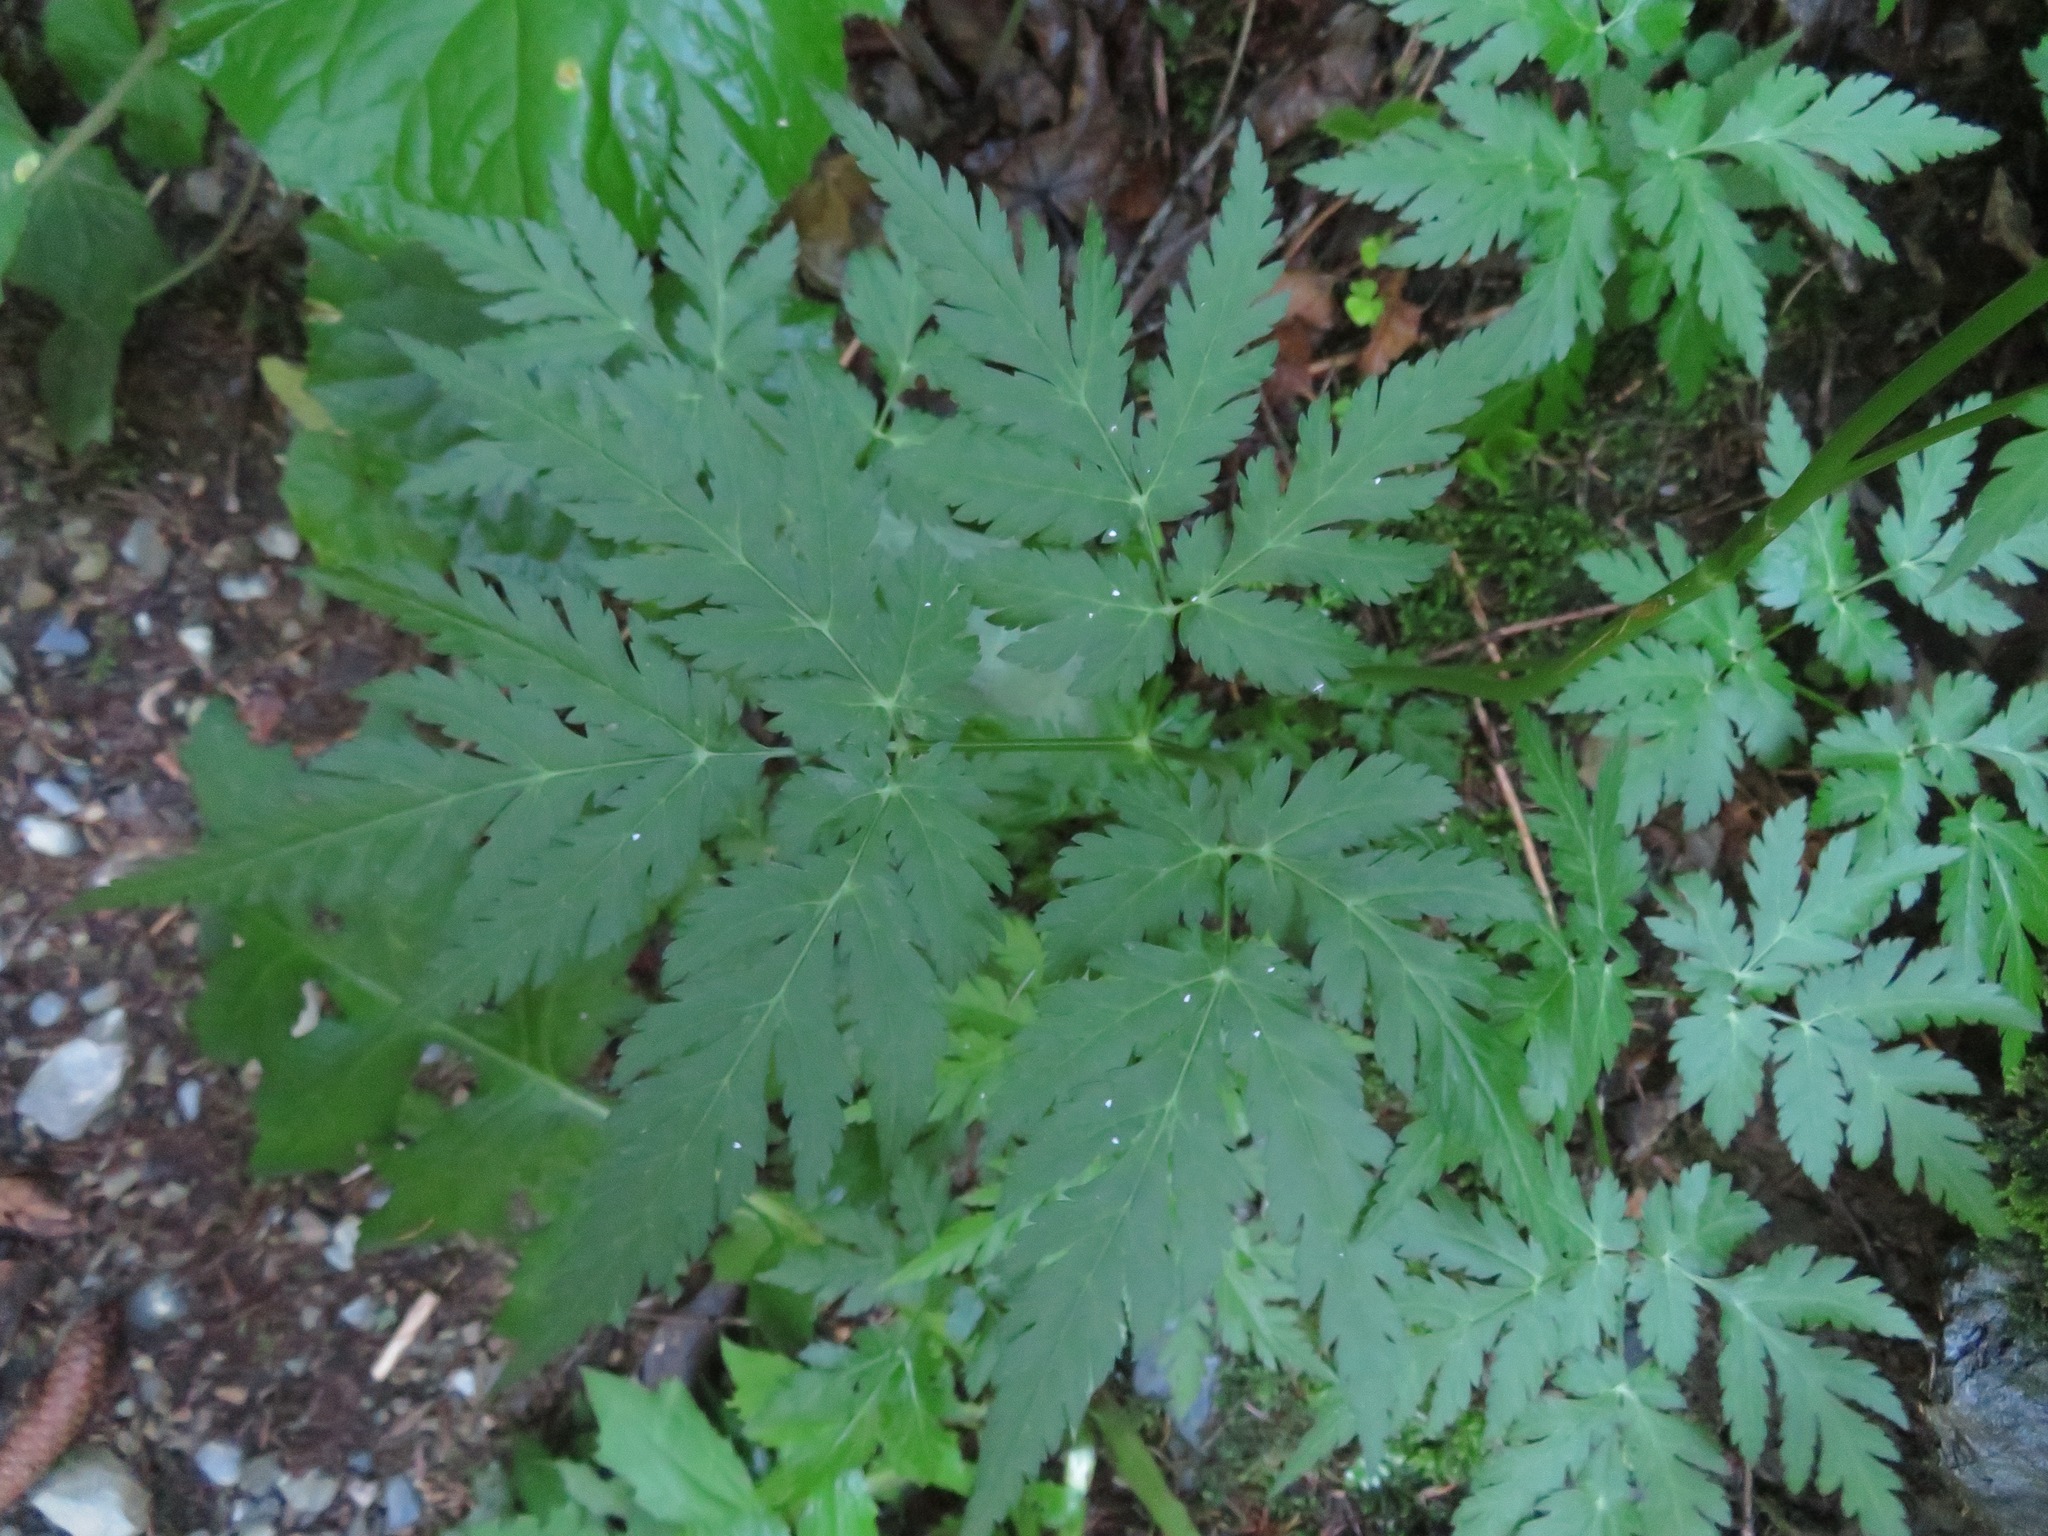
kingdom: Plantae
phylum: Tracheophyta
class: Magnoliopsida
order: Apiales
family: Apiaceae
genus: Chaerophyllum
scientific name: Chaerophyllum hirsutum
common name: Hairy chervil
